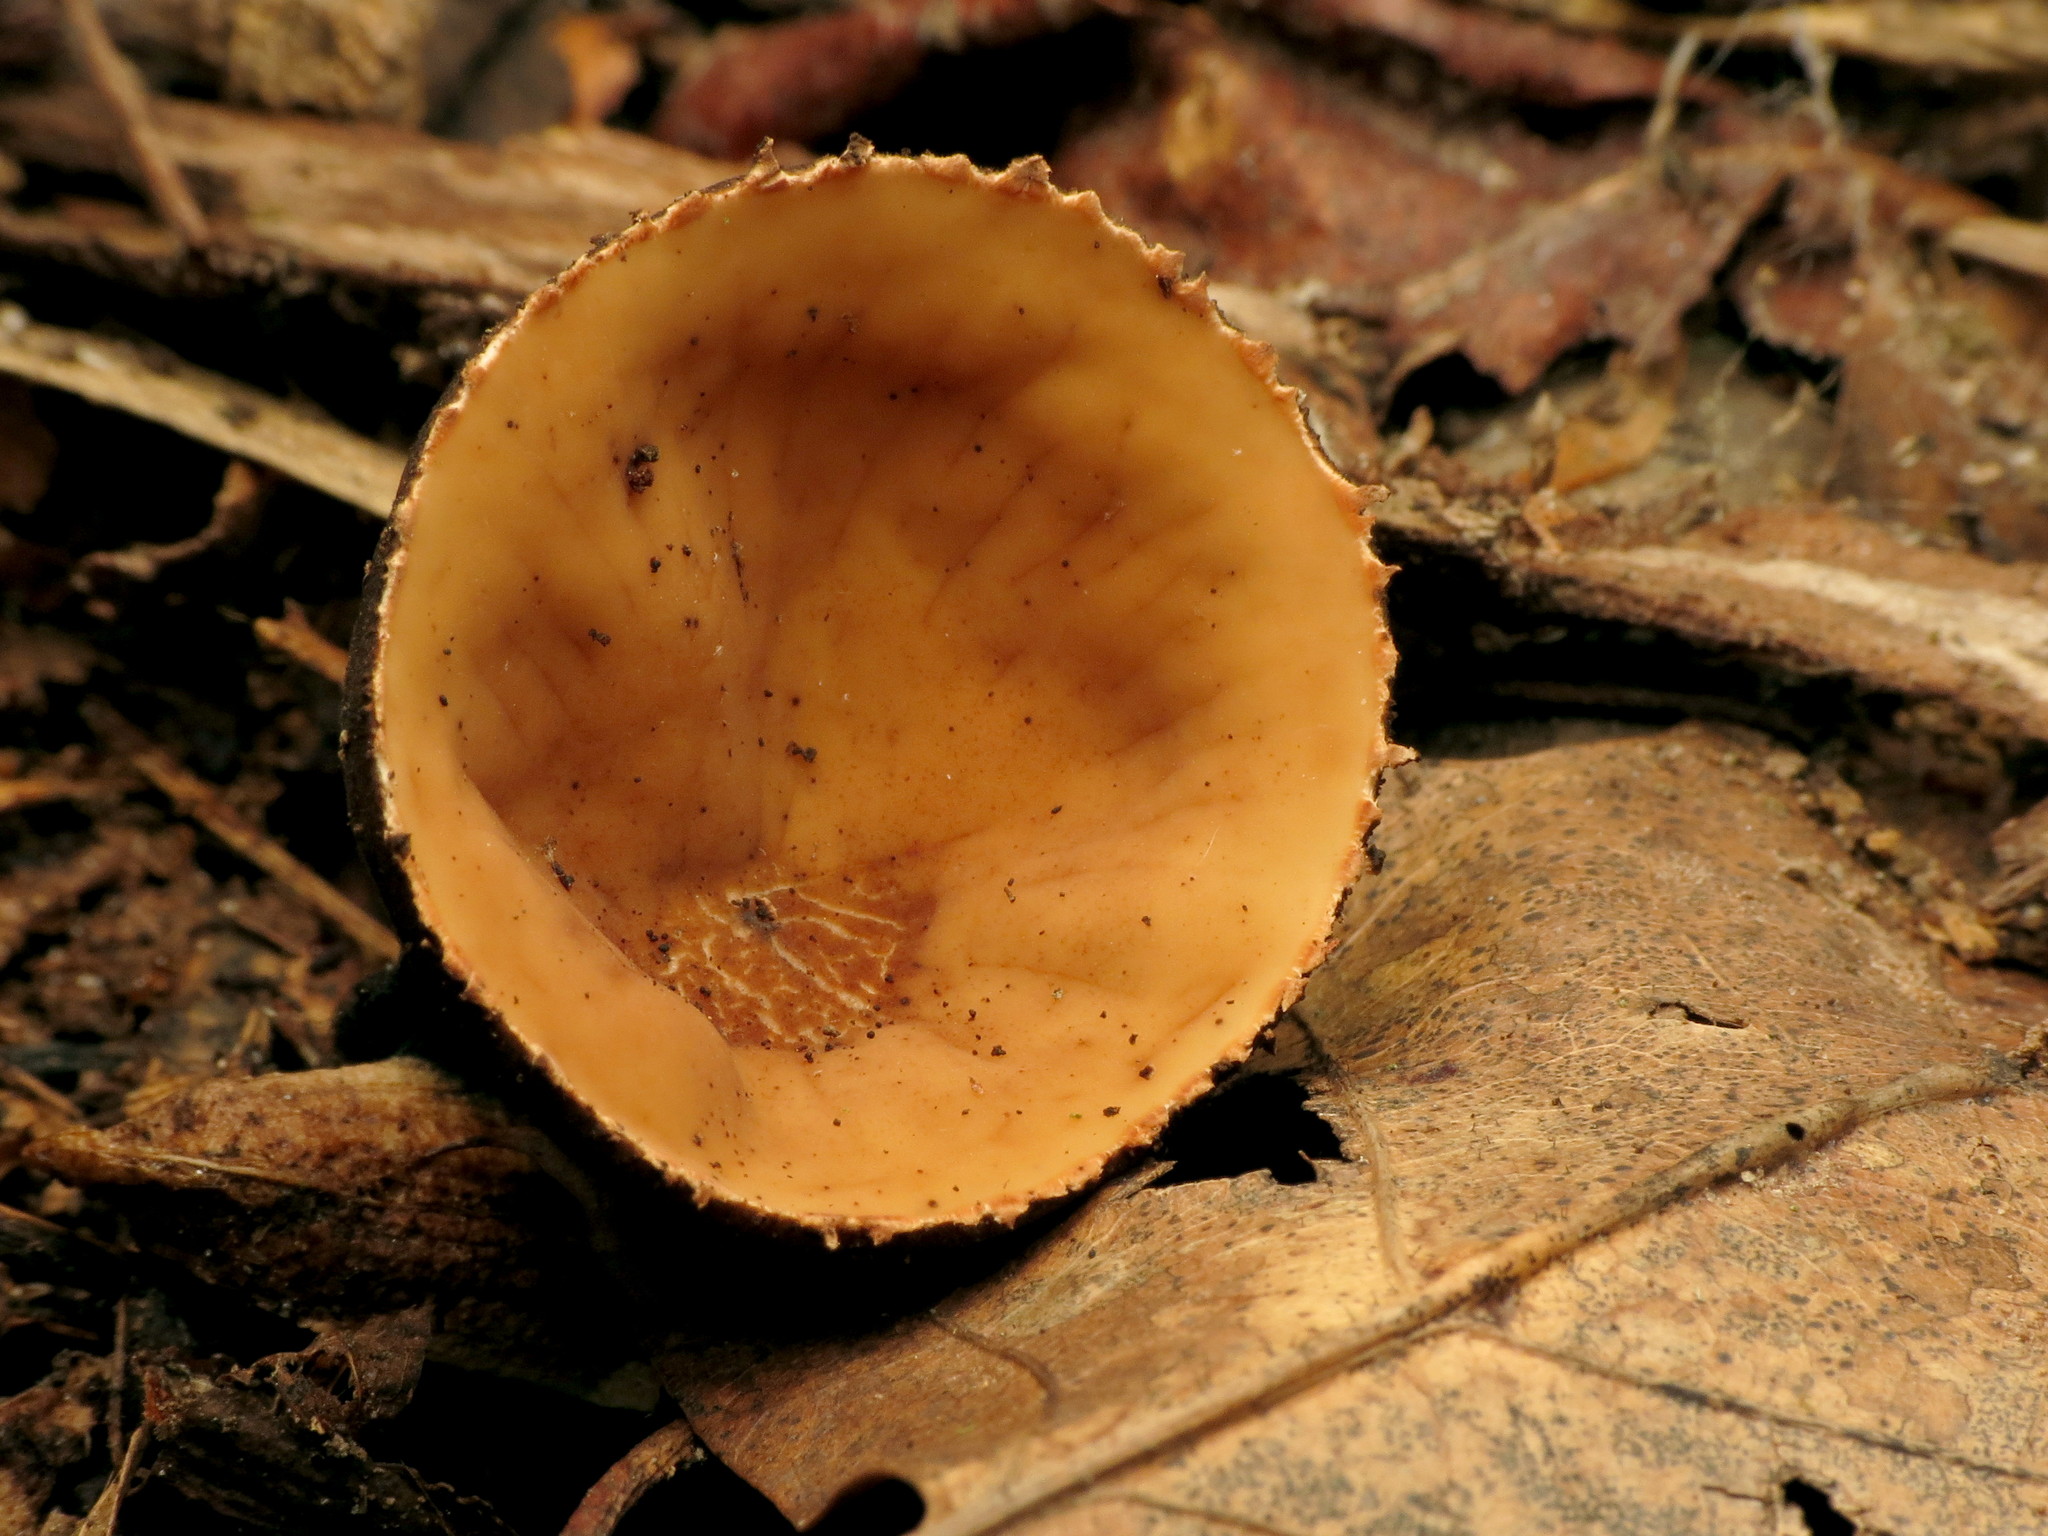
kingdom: Fungi
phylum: Ascomycota
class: Pezizomycetes
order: Pezizales
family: Sarcosomataceae
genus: Galiella
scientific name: Galiella rufa
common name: Hairy rubber cup
